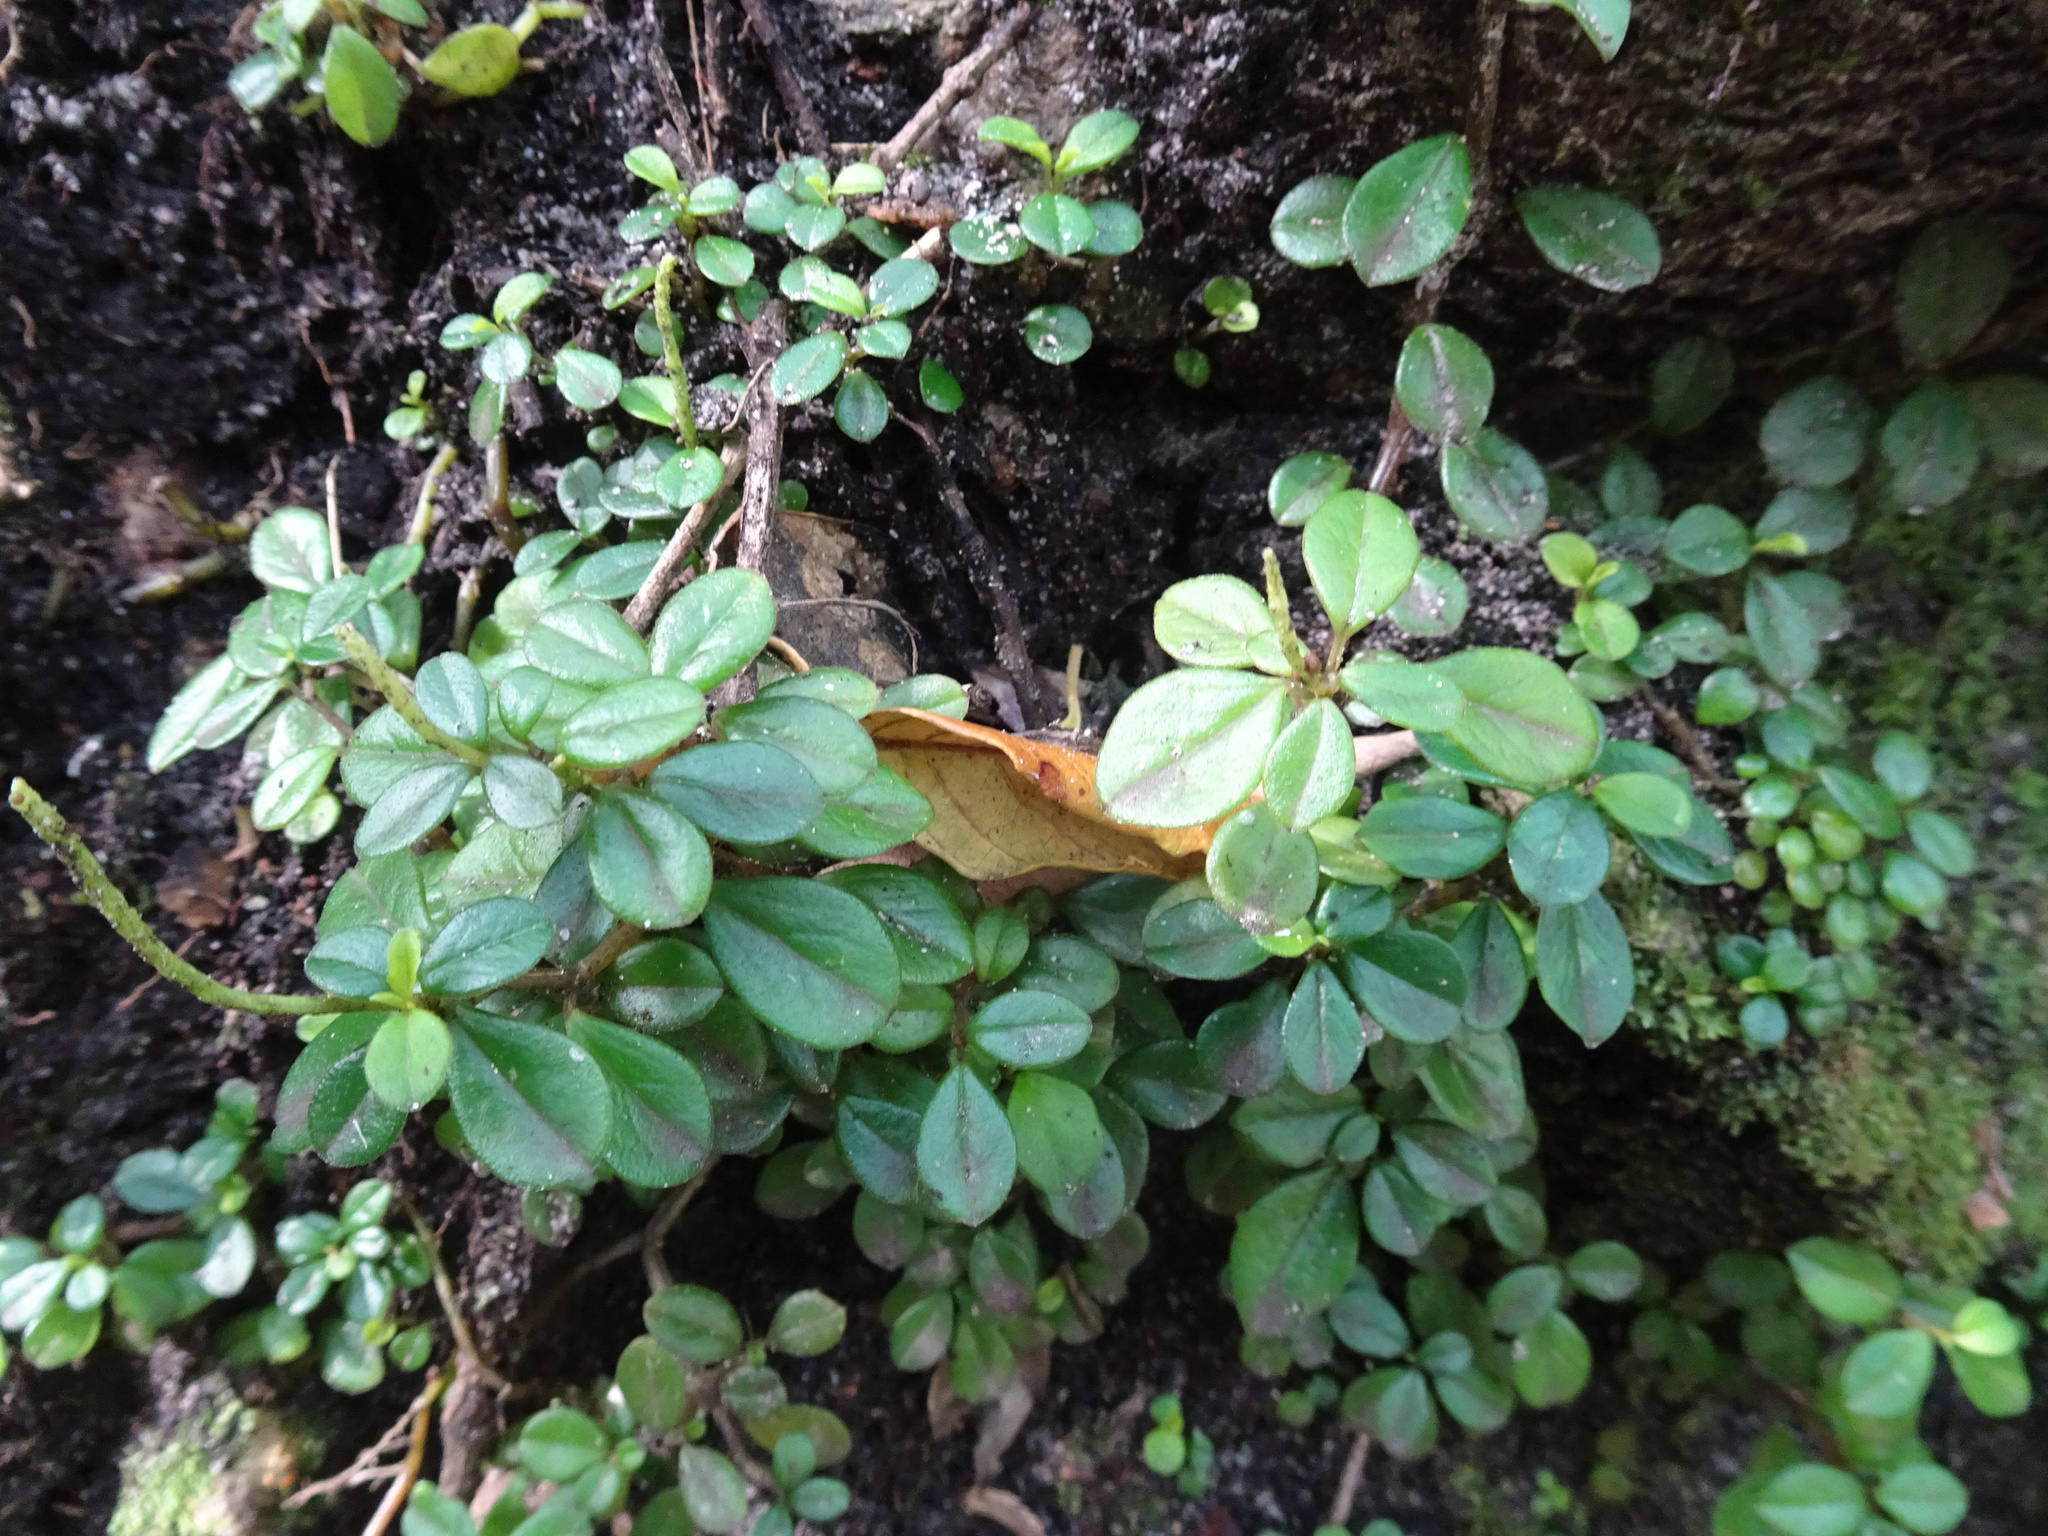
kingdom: Plantae
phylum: Tracheophyta
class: Magnoliopsida
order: Piperales
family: Piperaceae
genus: Peperomia
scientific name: Peperomia retusa
